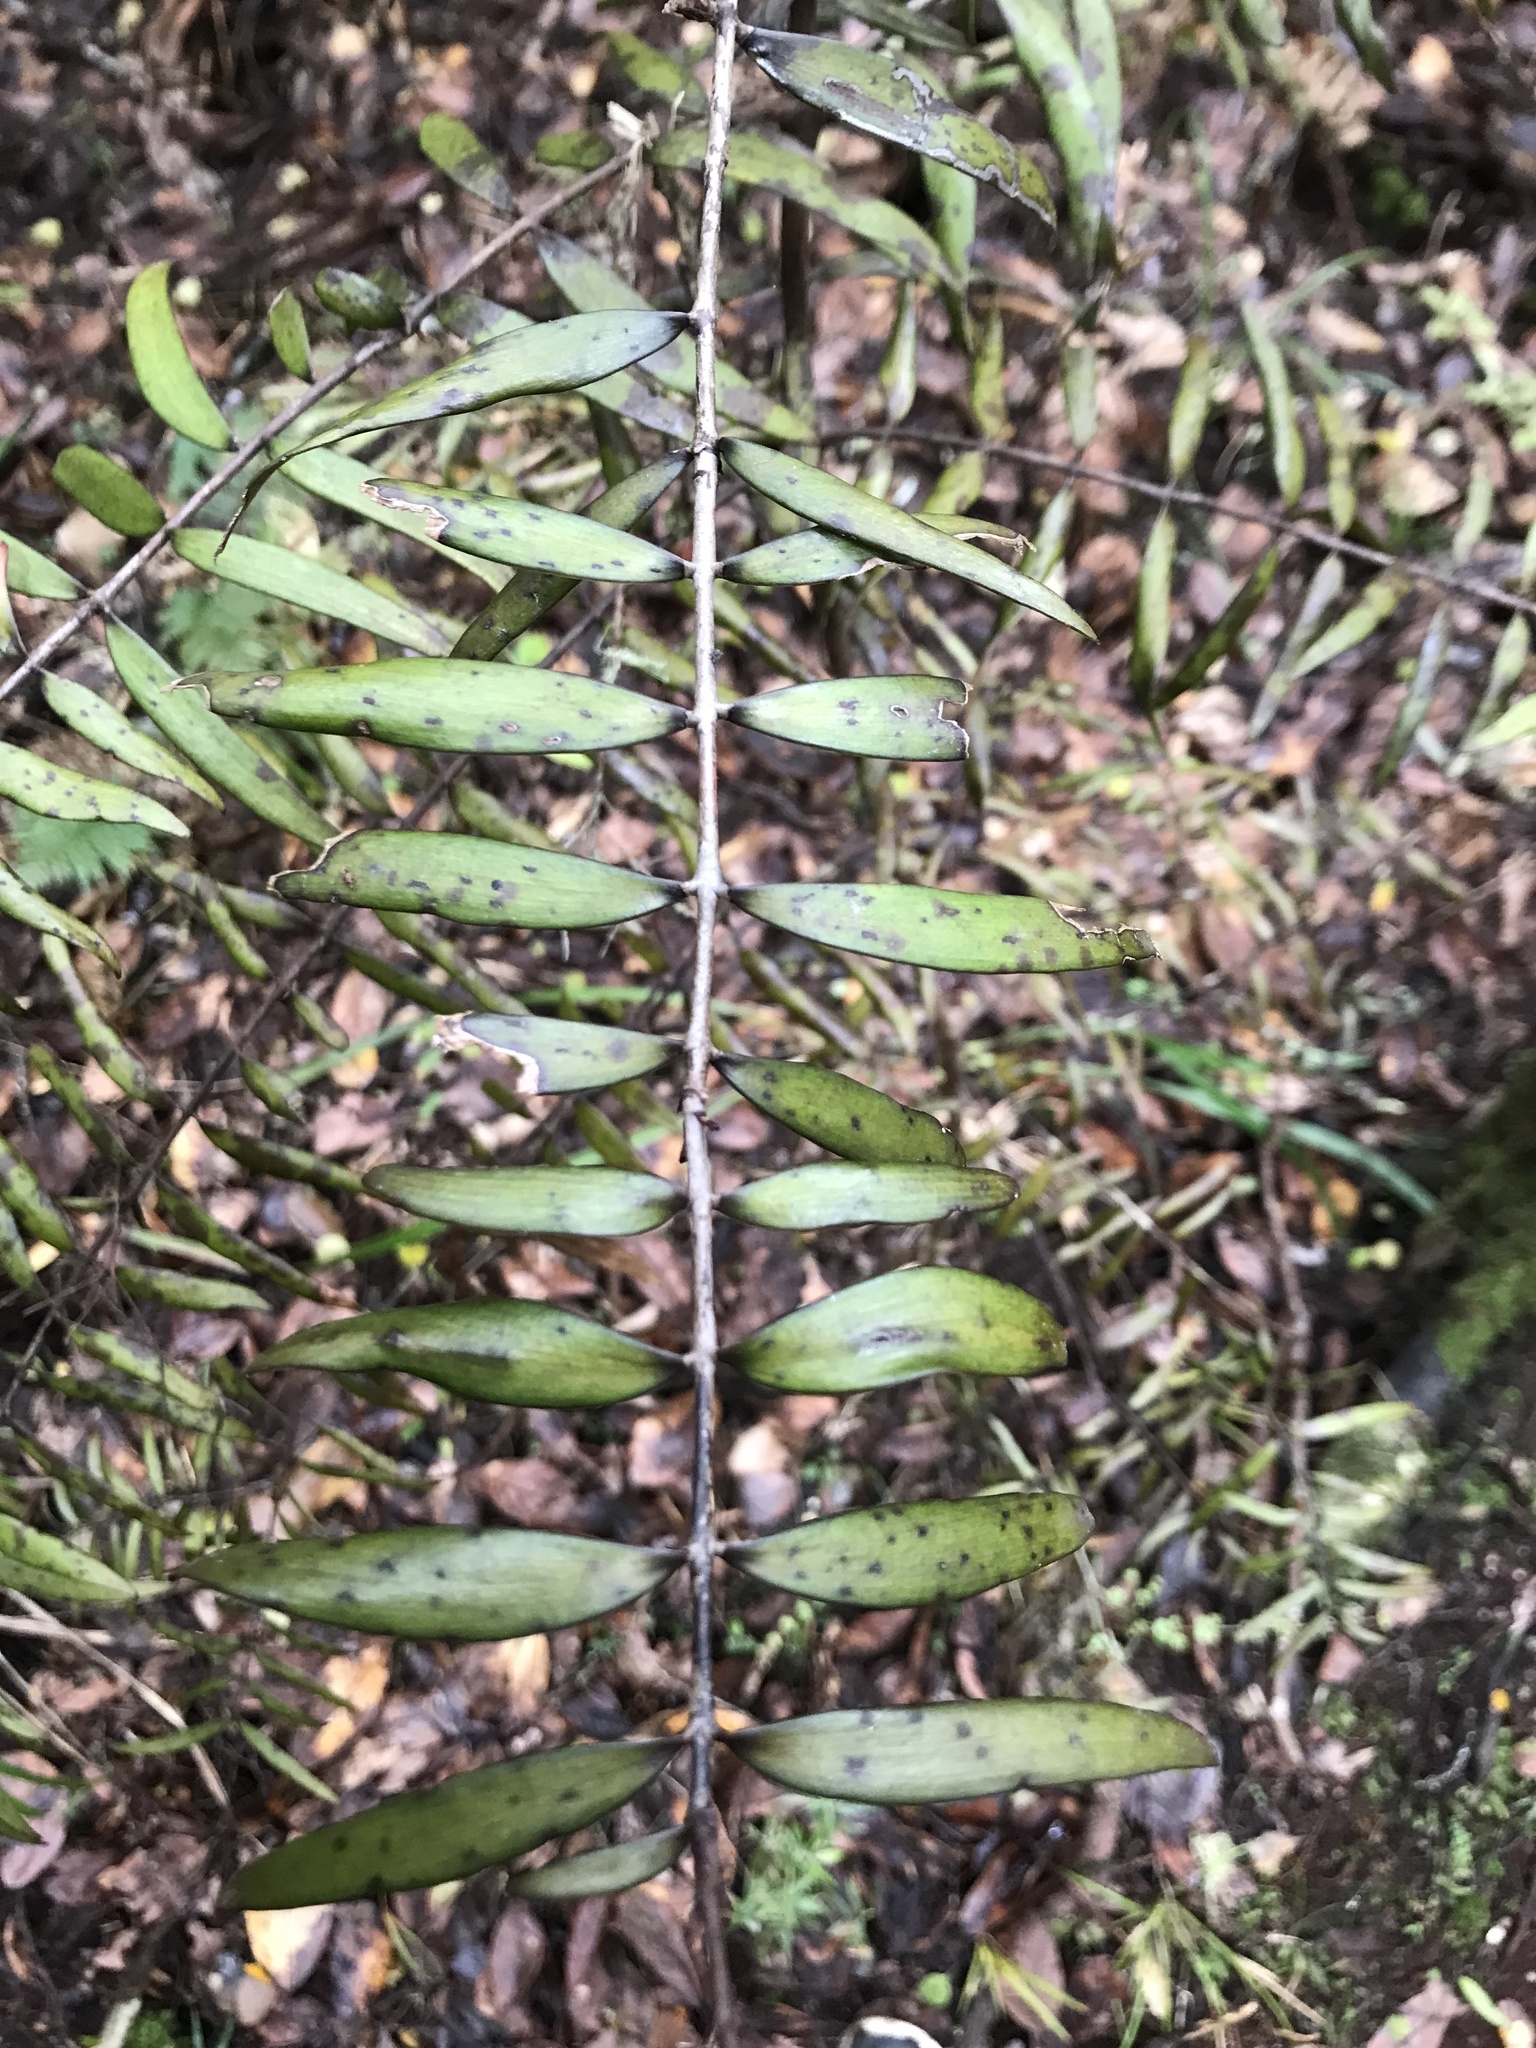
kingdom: Plantae
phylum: Tracheophyta
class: Pinopsida
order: Pinales
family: Araucariaceae
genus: Agathis
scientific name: Agathis australis
